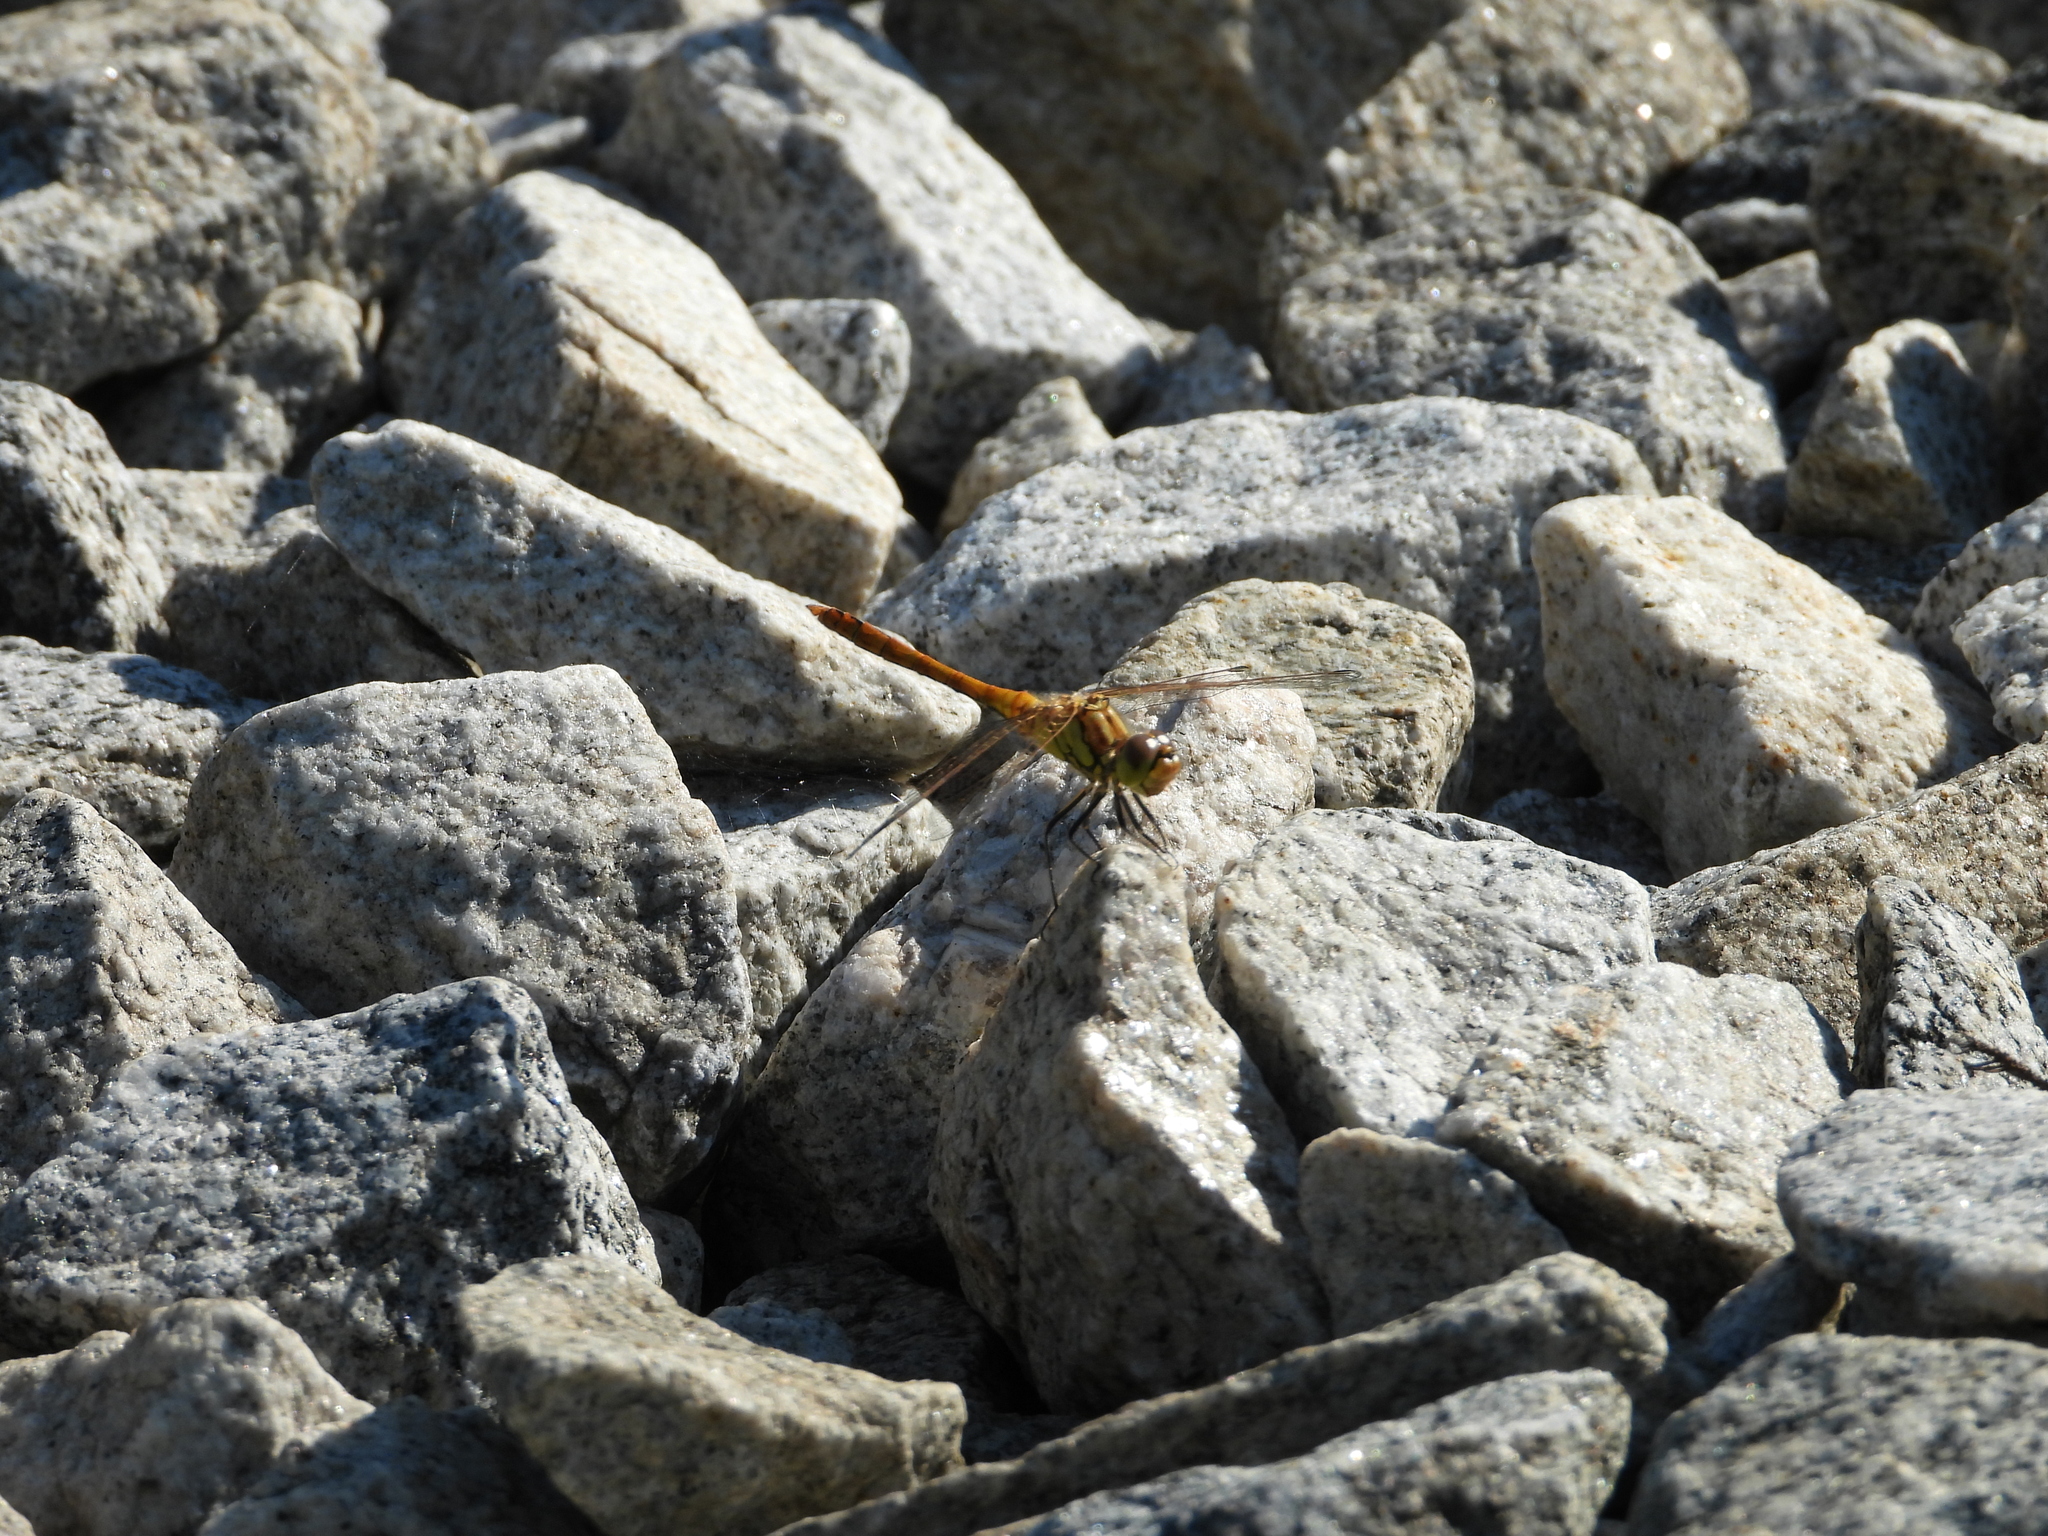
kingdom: Animalia
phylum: Arthropoda
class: Insecta
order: Odonata
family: Libellulidae
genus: Sympetrum
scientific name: Sympetrum vulgatum
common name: Vagrant darter
